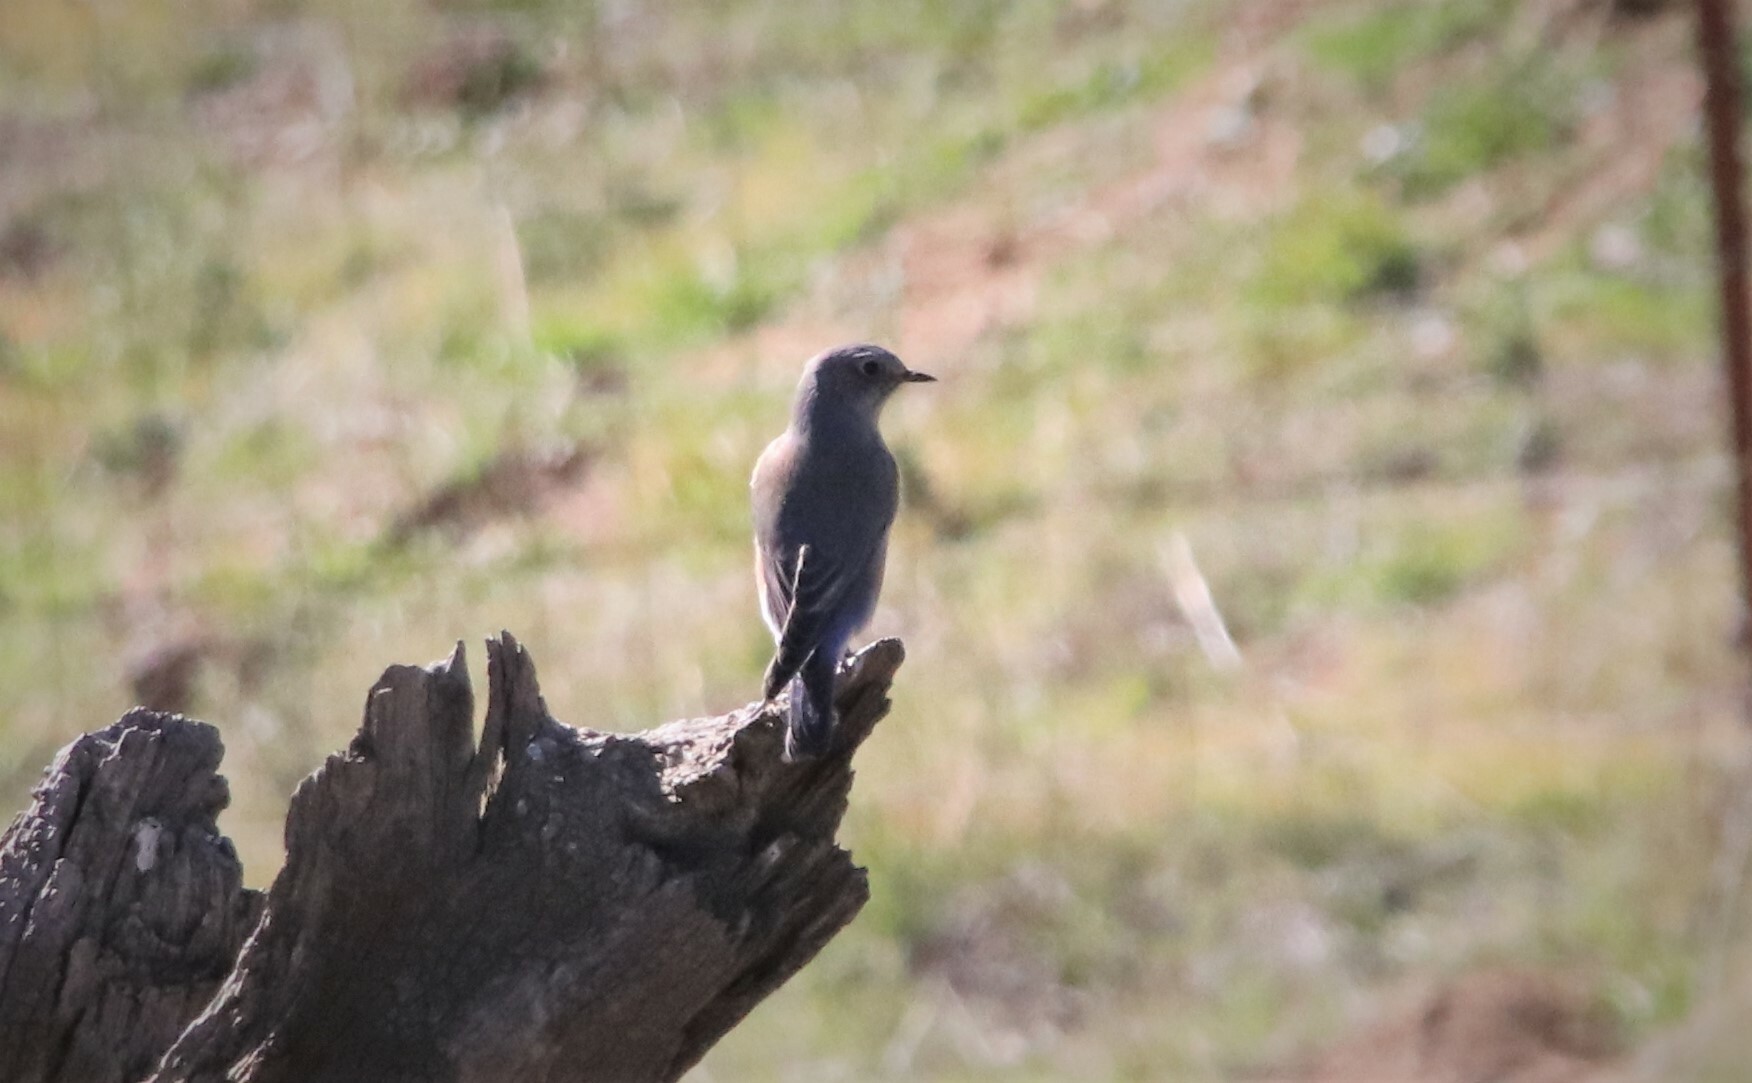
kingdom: Animalia
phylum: Chordata
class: Aves
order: Passeriformes
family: Turdidae
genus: Sialia
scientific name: Sialia mexicana
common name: Western bluebird
